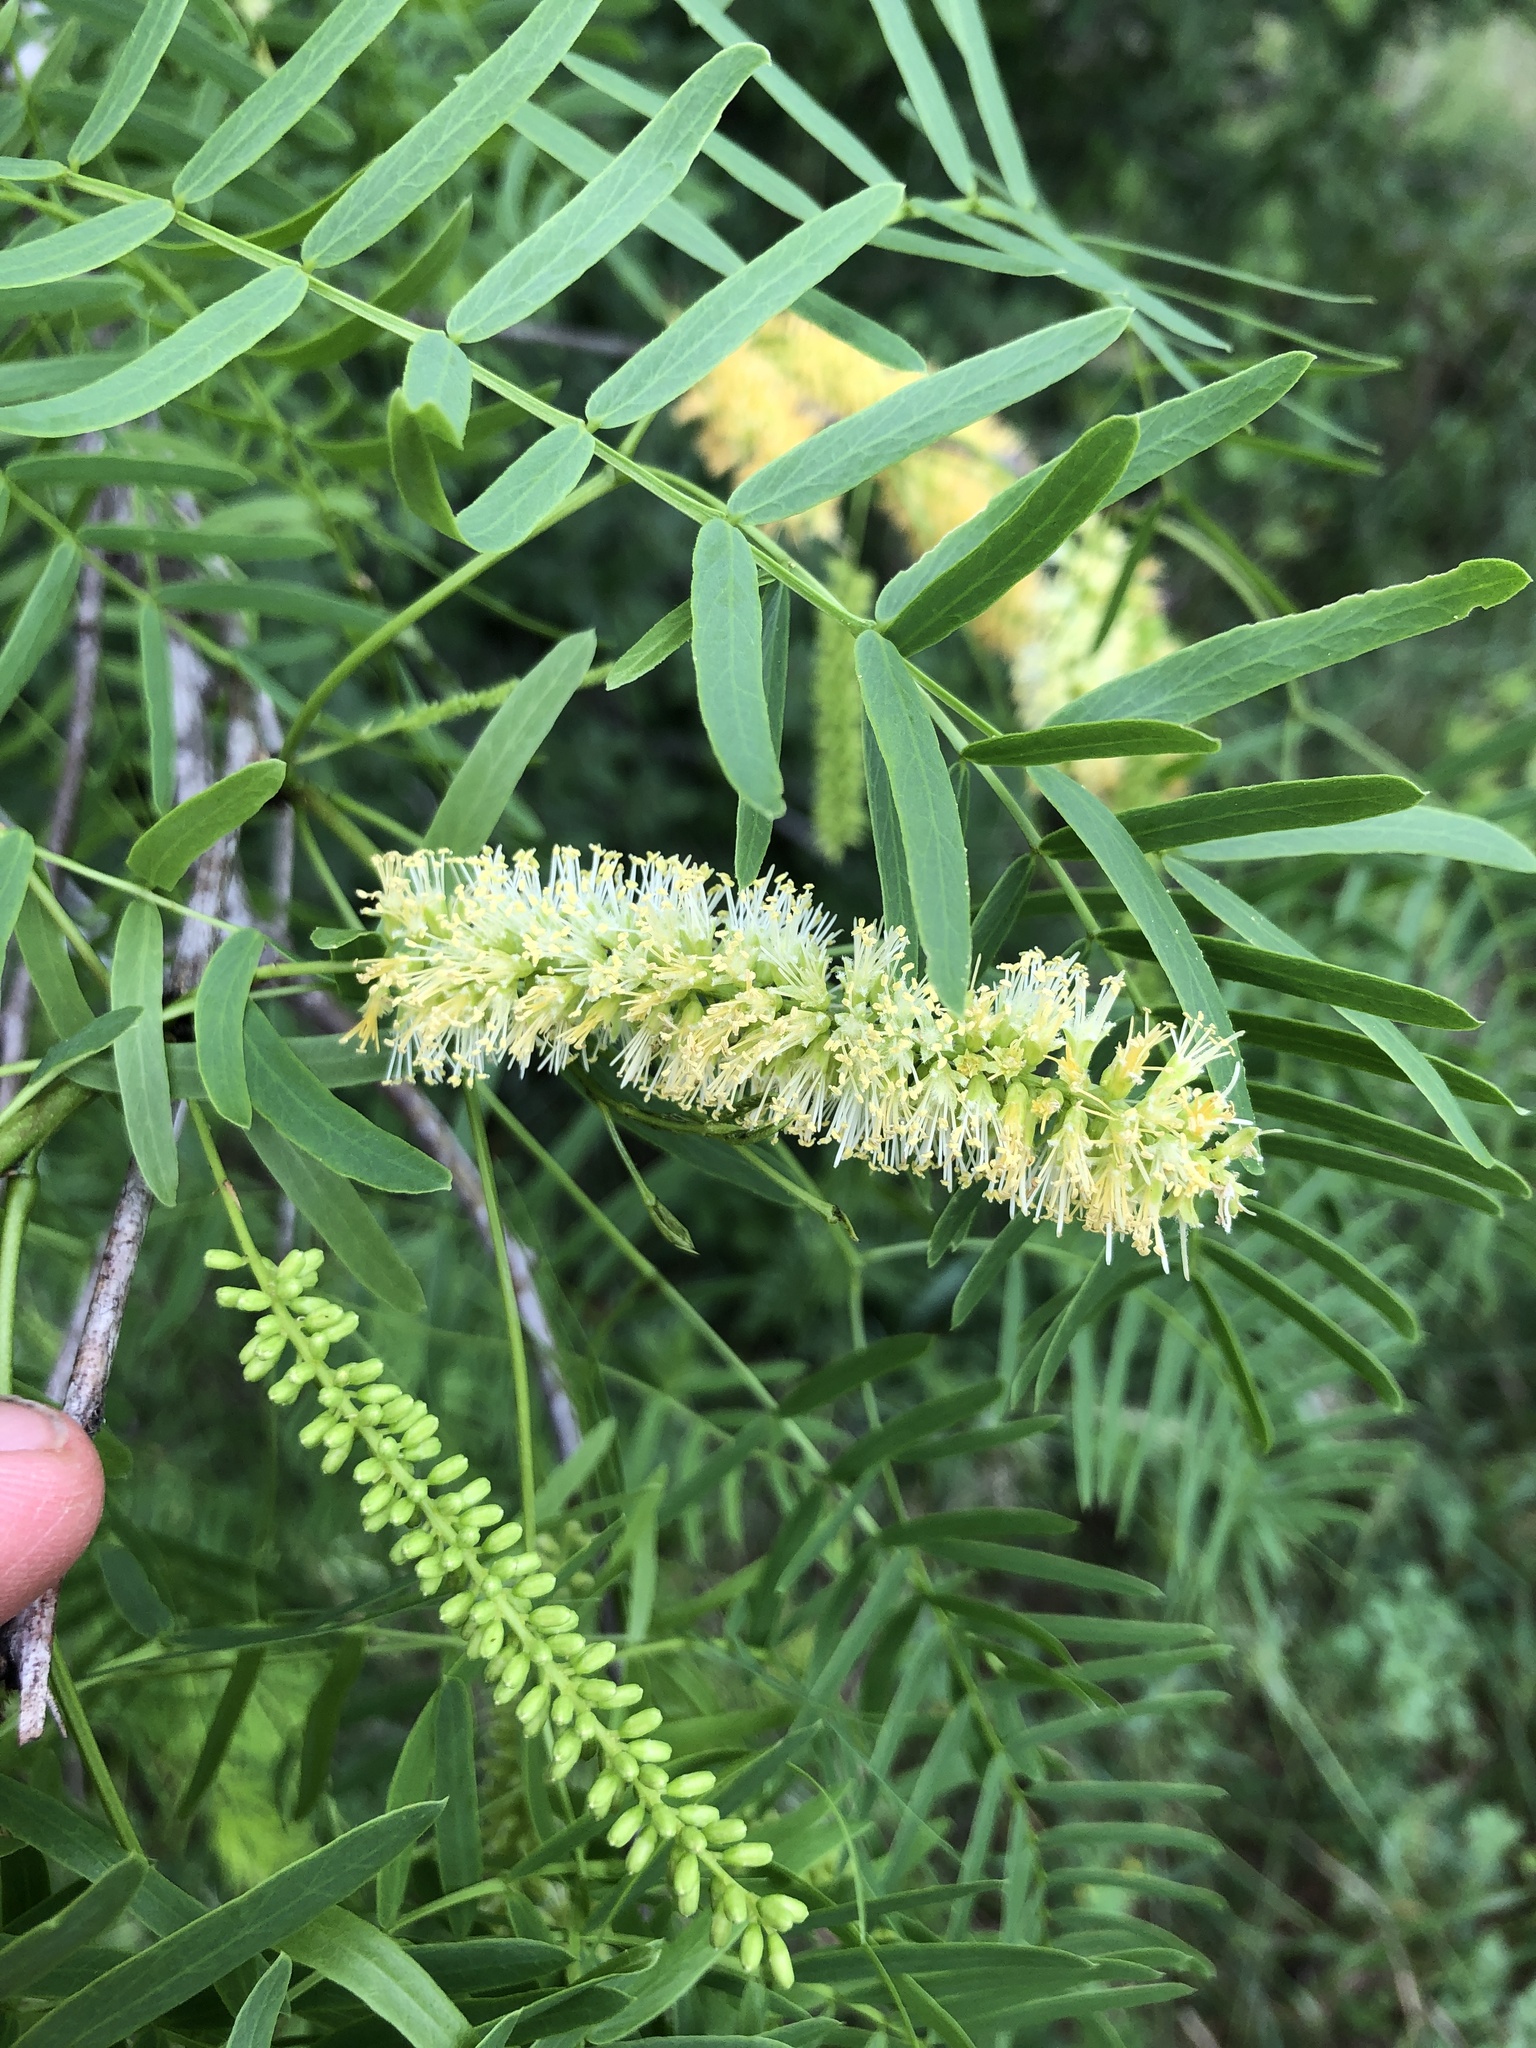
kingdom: Plantae
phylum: Tracheophyta
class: Magnoliopsida
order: Fabales
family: Fabaceae
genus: Prosopis
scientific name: Prosopis glandulosa
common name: Honey mesquite
